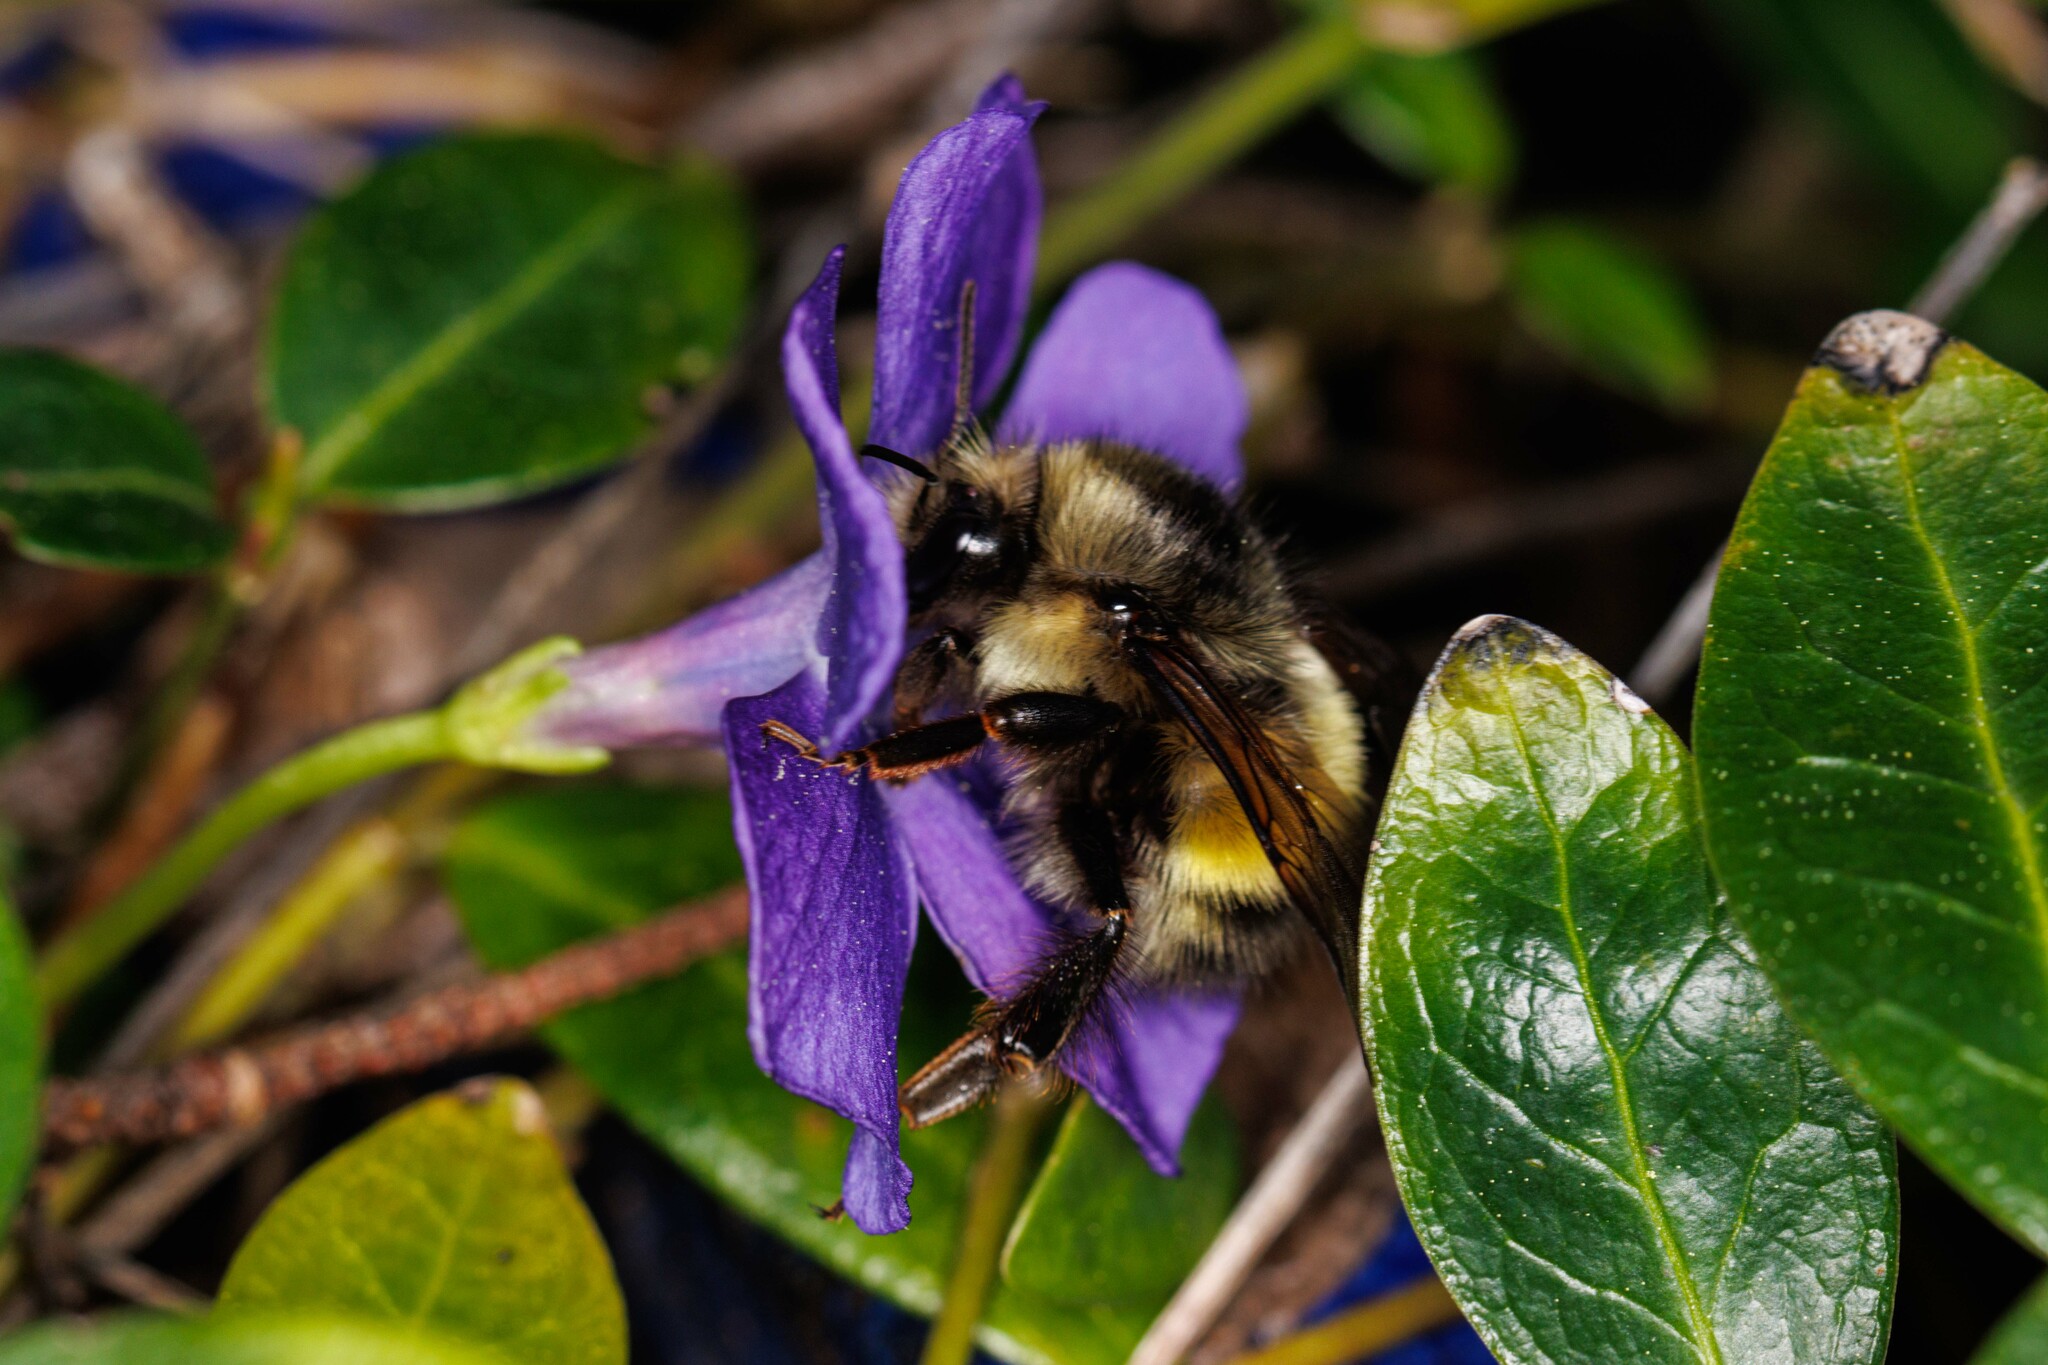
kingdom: Animalia
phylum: Arthropoda
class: Insecta
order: Hymenoptera
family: Apidae
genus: Bombus
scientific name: Bombus flavifrons
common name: Yellow head bumble bee
